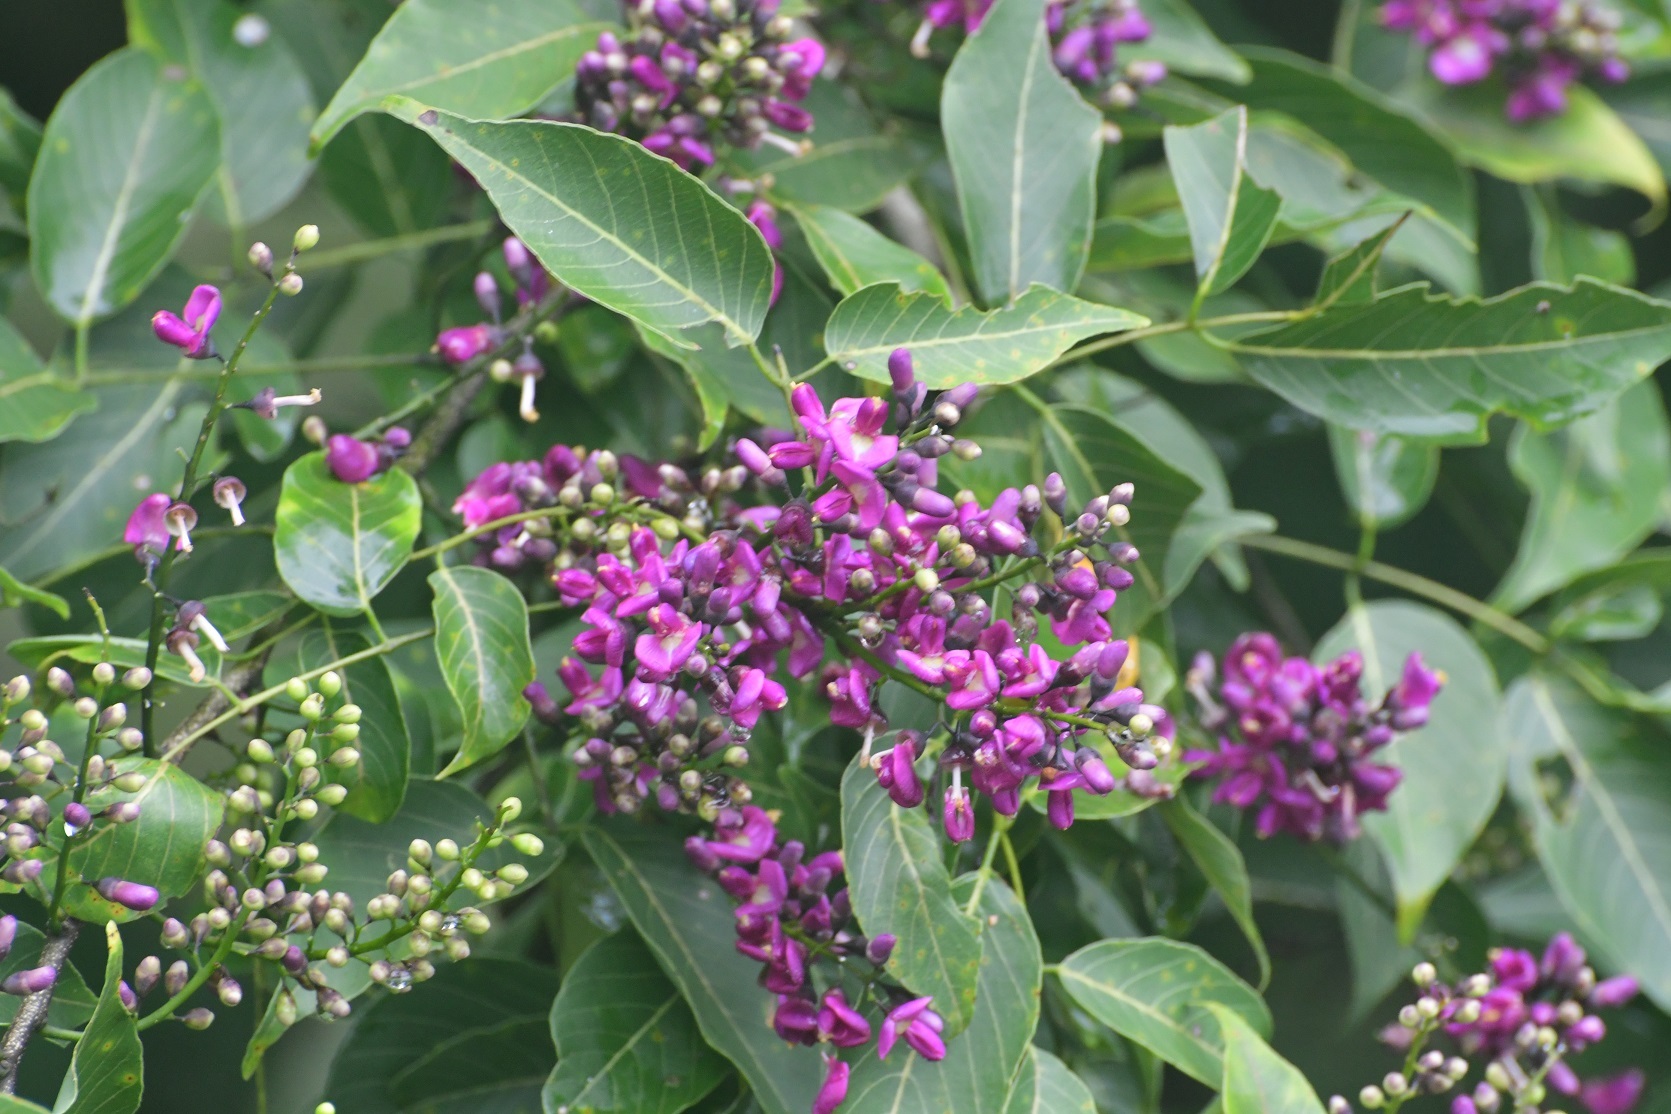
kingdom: Plantae
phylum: Tracheophyta
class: Magnoliopsida
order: Fabales
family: Fabaceae
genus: Lonchocarpus
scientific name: Lonchocarpus sumiderensis
